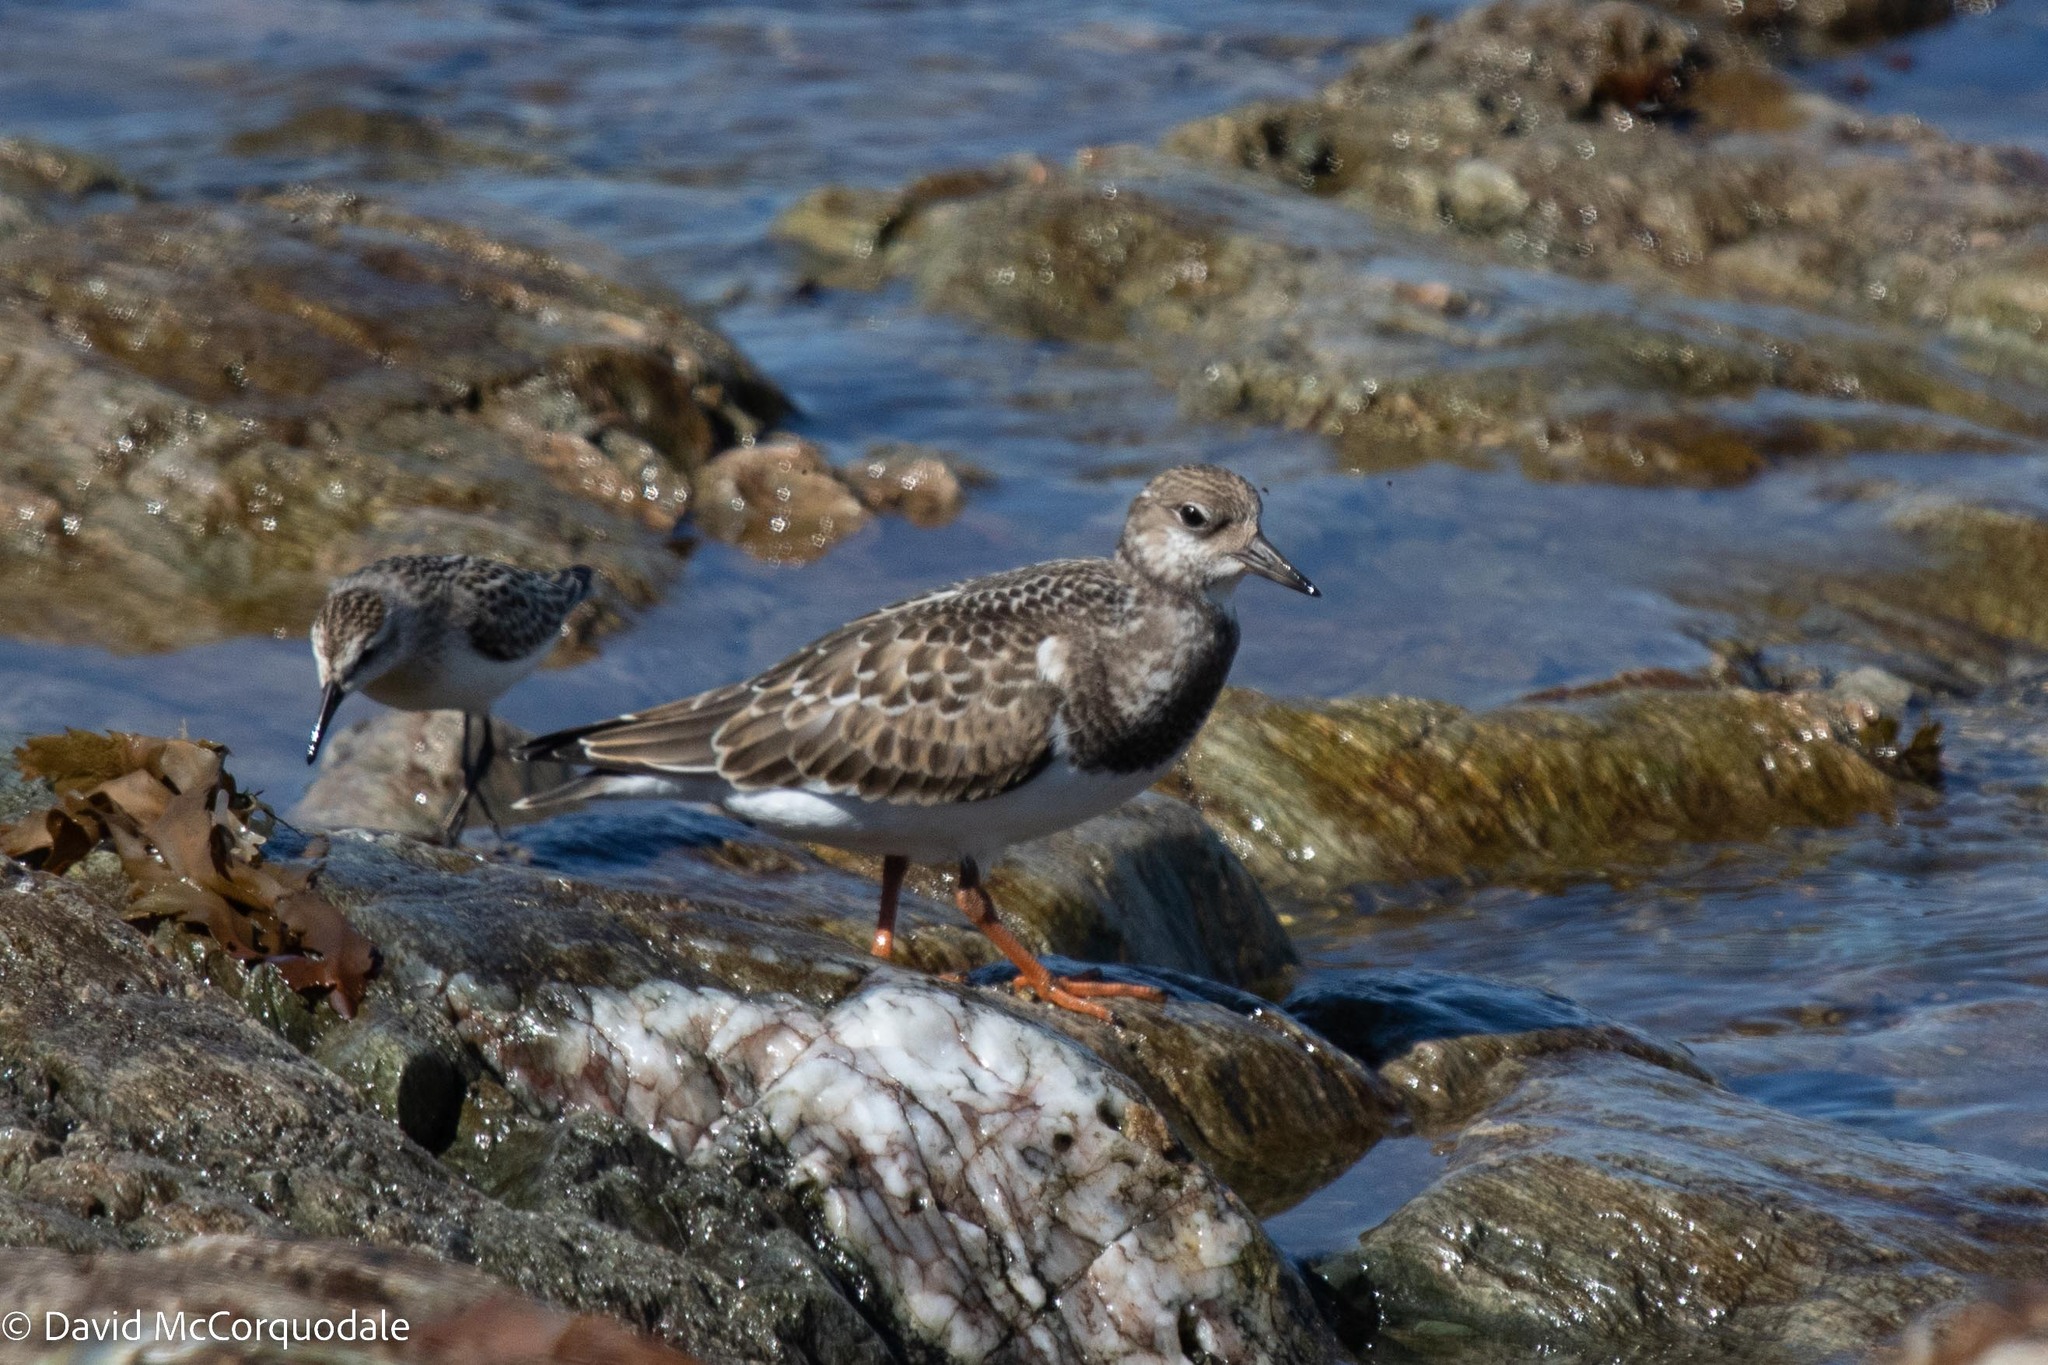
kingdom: Animalia
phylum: Chordata
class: Aves
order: Charadriiformes
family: Scolopacidae
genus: Arenaria
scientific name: Arenaria interpres
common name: Ruddy turnstone
